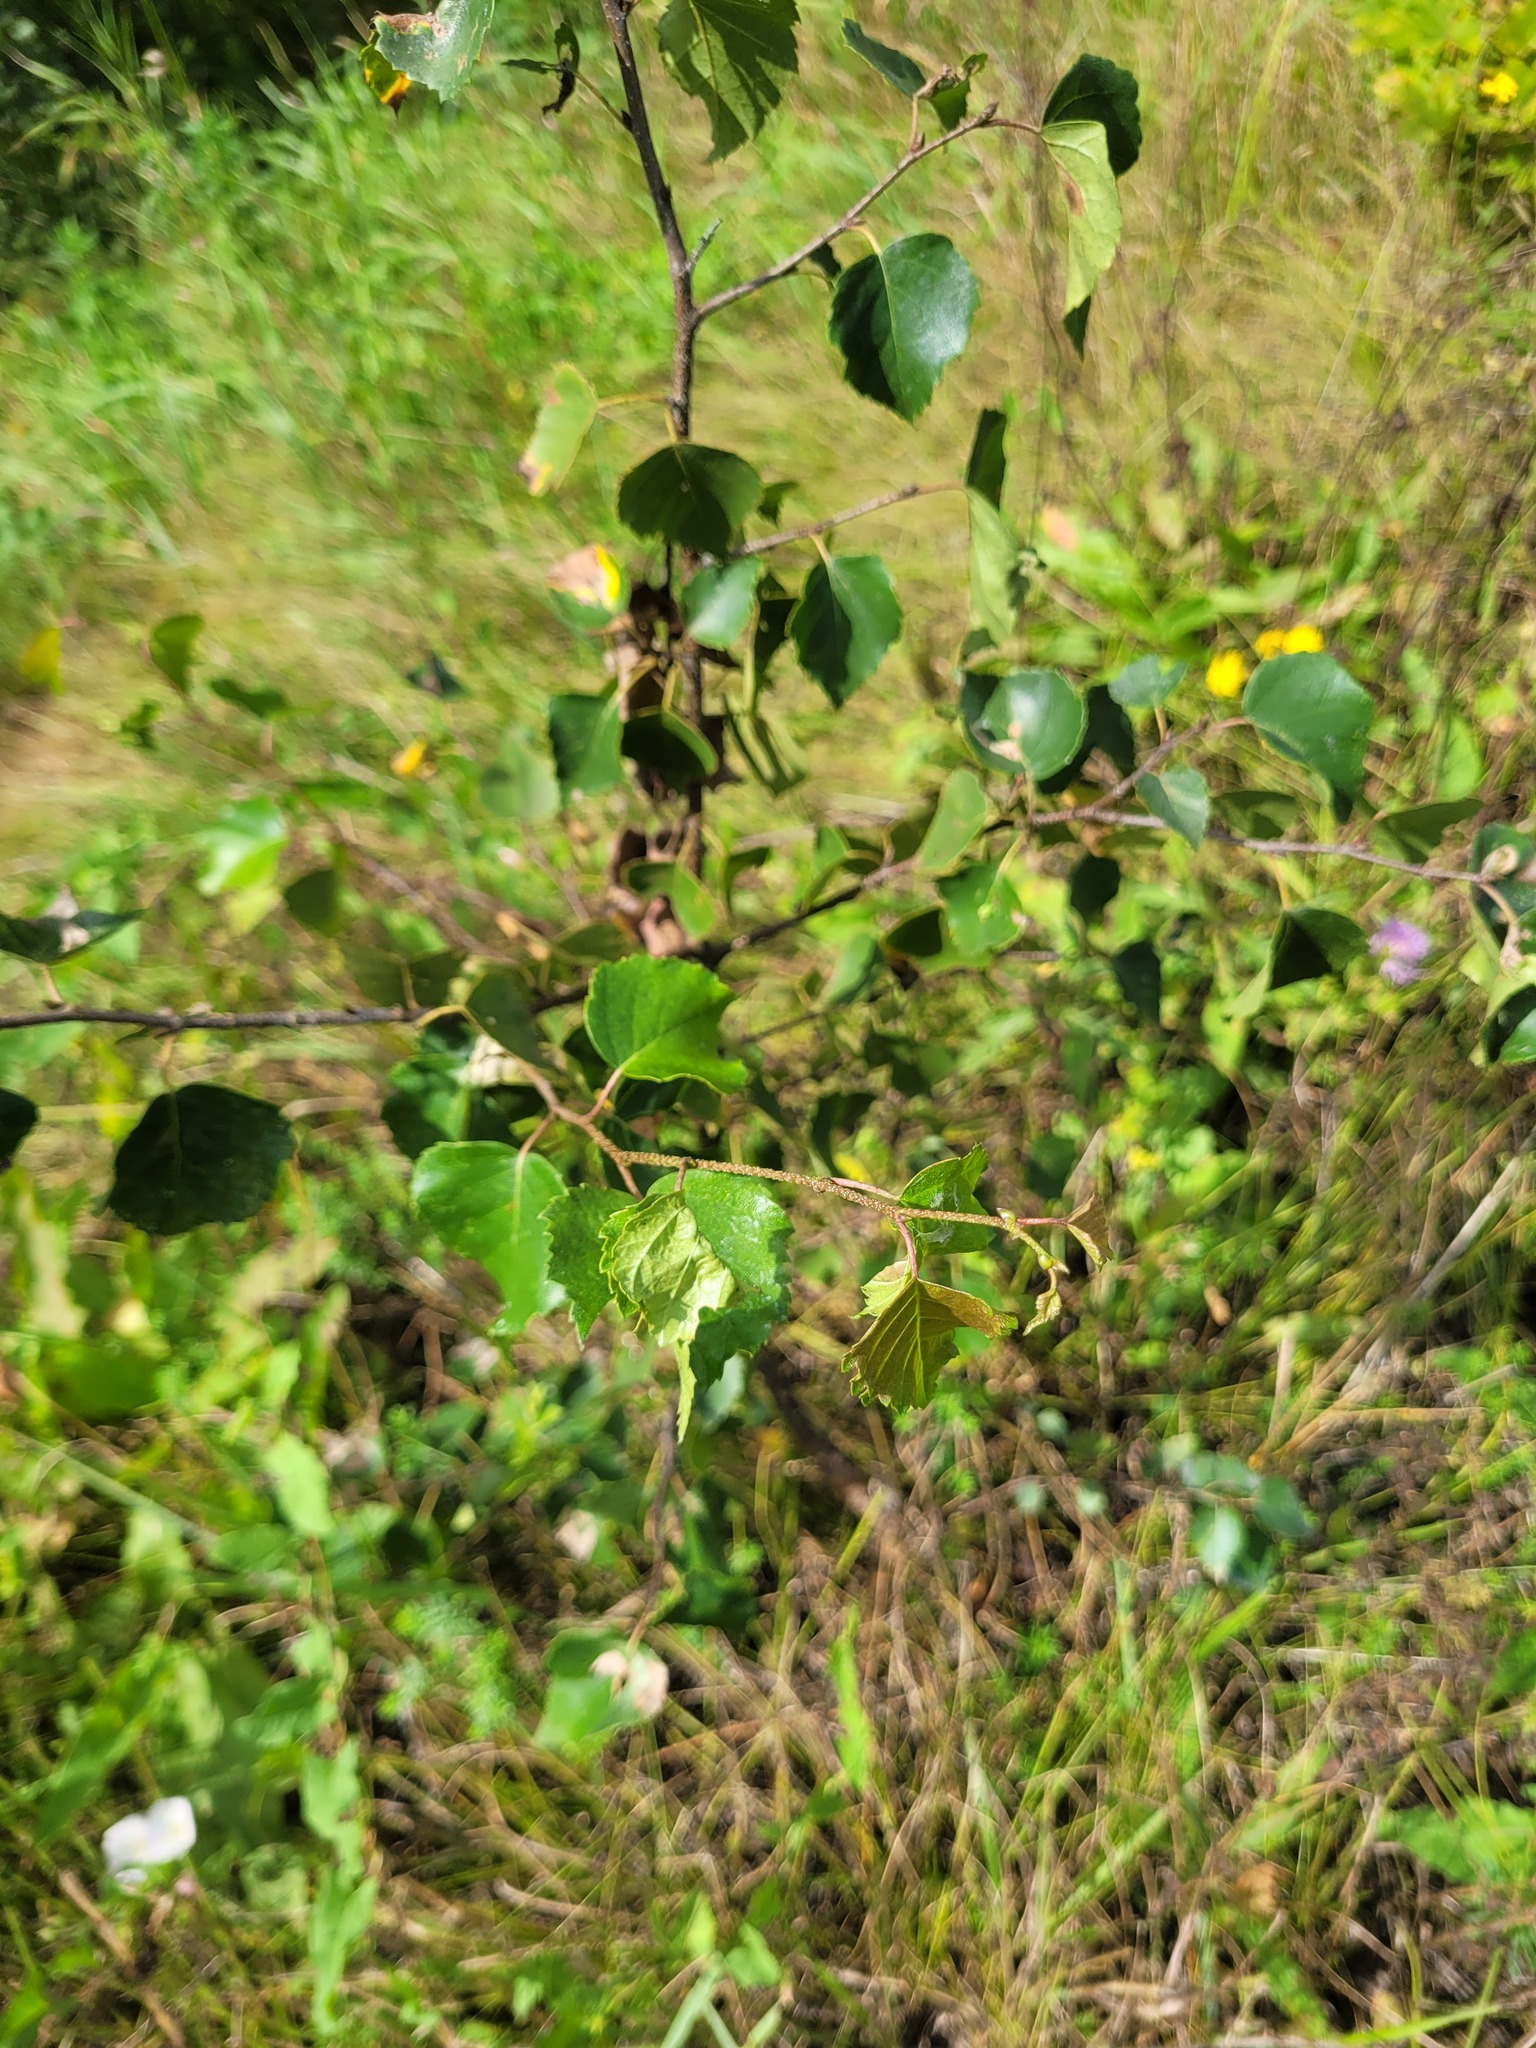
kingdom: Plantae
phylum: Tracheophyta
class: Magnoliopsida
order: Fagales
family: Betulaceae
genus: Betula
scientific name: Betula pendula
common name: Silver birch
